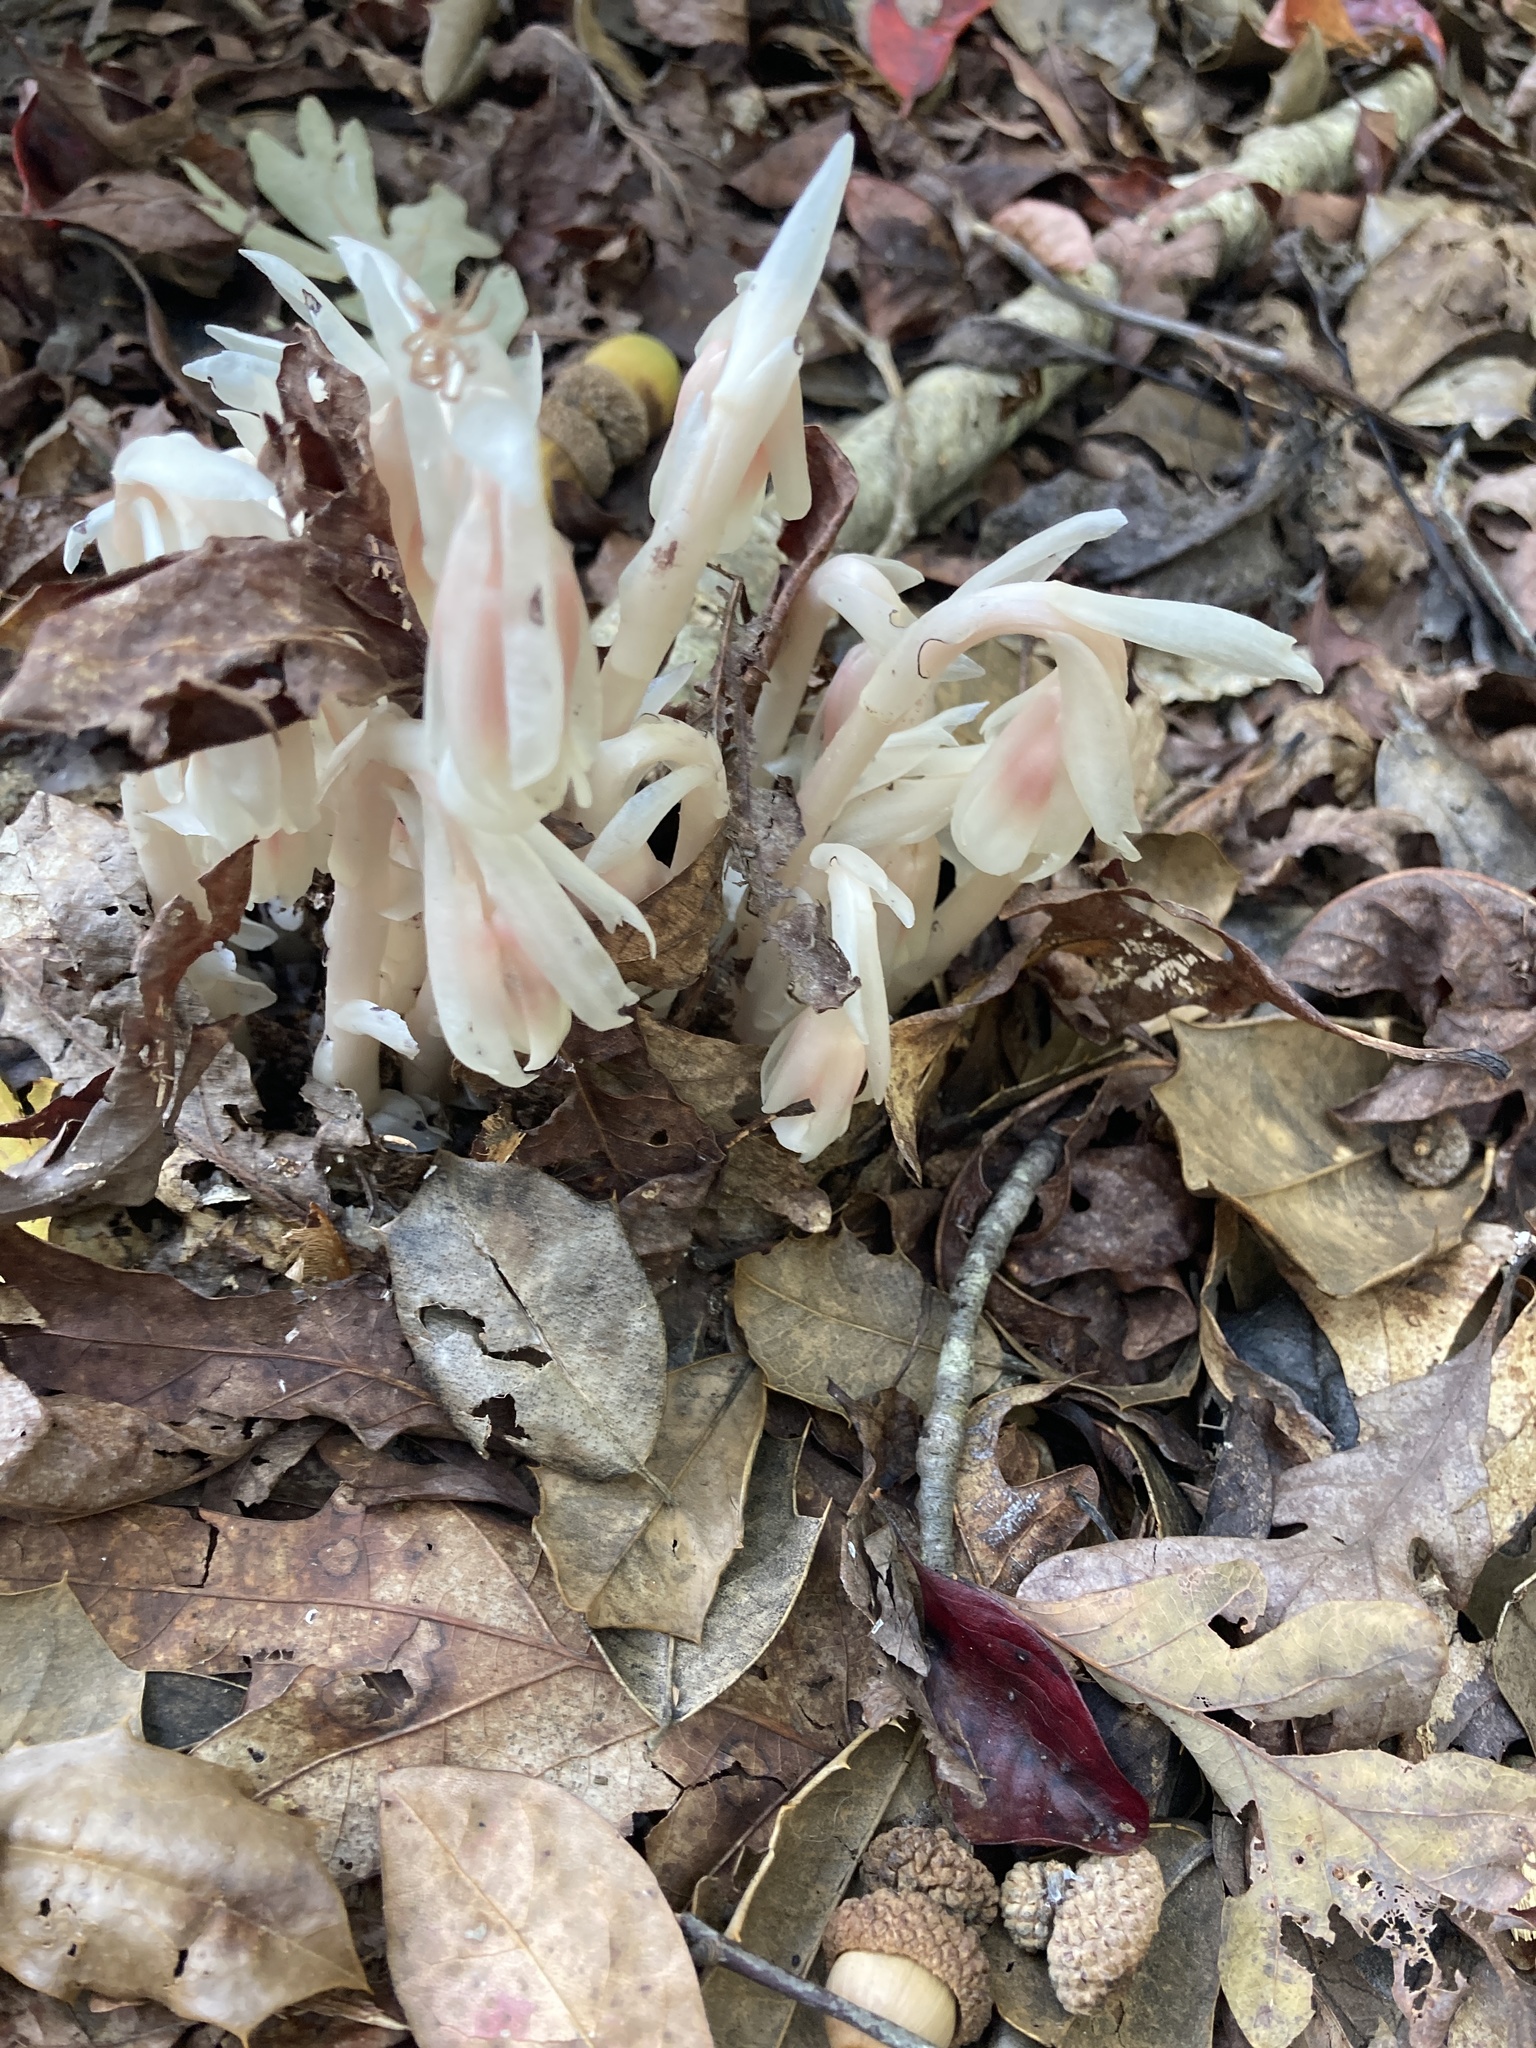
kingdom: Plantae
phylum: Tracheophyta
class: Magnoliopsida
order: Ericales
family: Ericaceae
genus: Monotropa
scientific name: Monotropa uniflora
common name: Convulsion root
